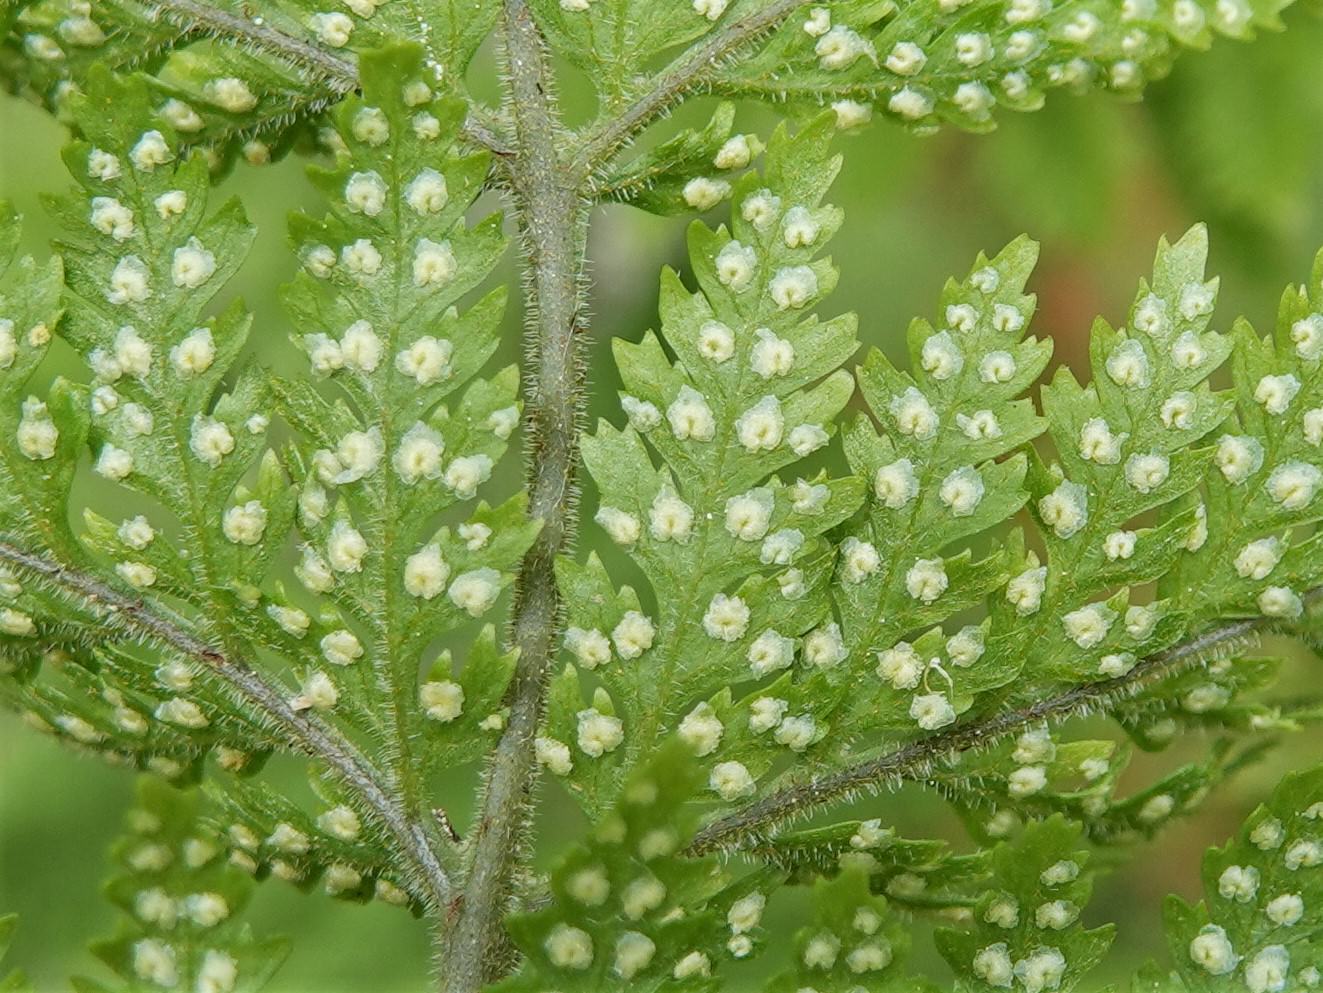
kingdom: Plantae
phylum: Tracheophyta
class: Polypodiopsida
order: Polypodiales
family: Dryopteridaceae
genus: Parapolystichum
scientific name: Parapolystichum microsorum
